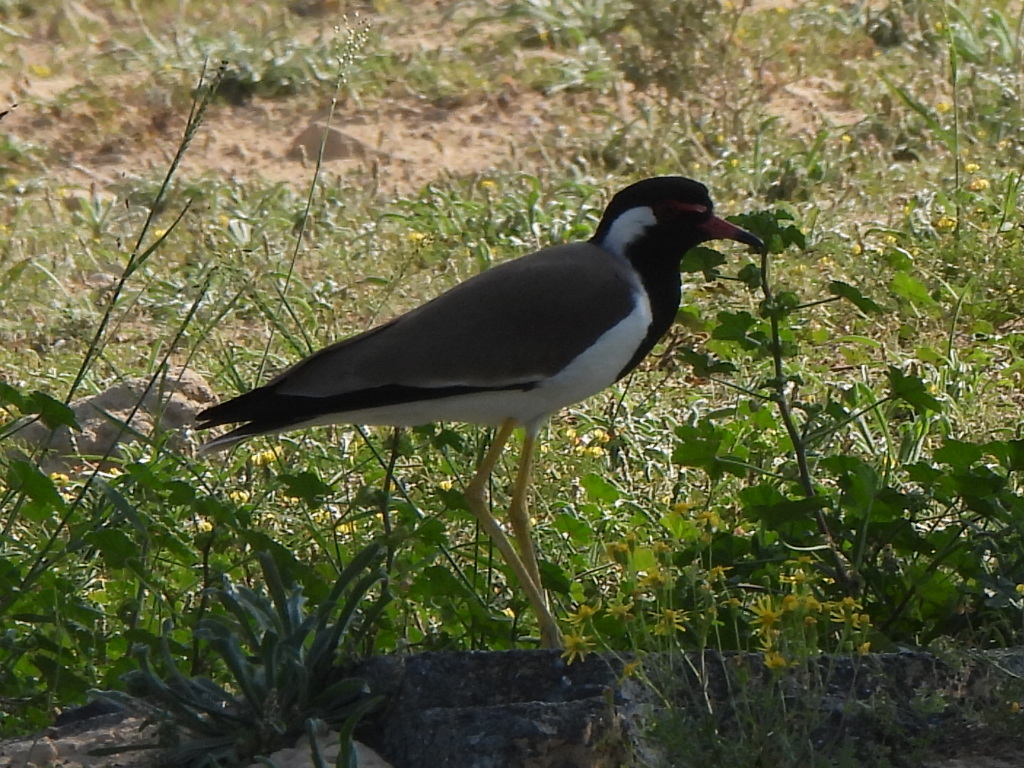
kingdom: Animalia
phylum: Chordata
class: Aves
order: Charadriiformes
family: Charadriidae
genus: Vanellus
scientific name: Vanellus indicus
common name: Red-wattled lapwing
